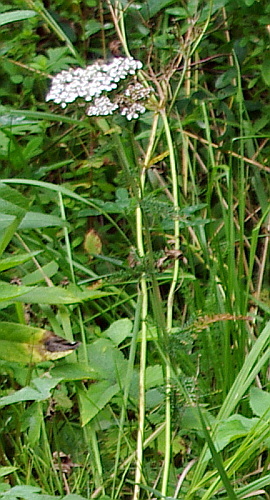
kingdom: Plantae
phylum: Tracheophyta
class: Magnoliopsida
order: Asterales
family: Asteraceae
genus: Achillea
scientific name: Achillea millefolium
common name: Yarrow
